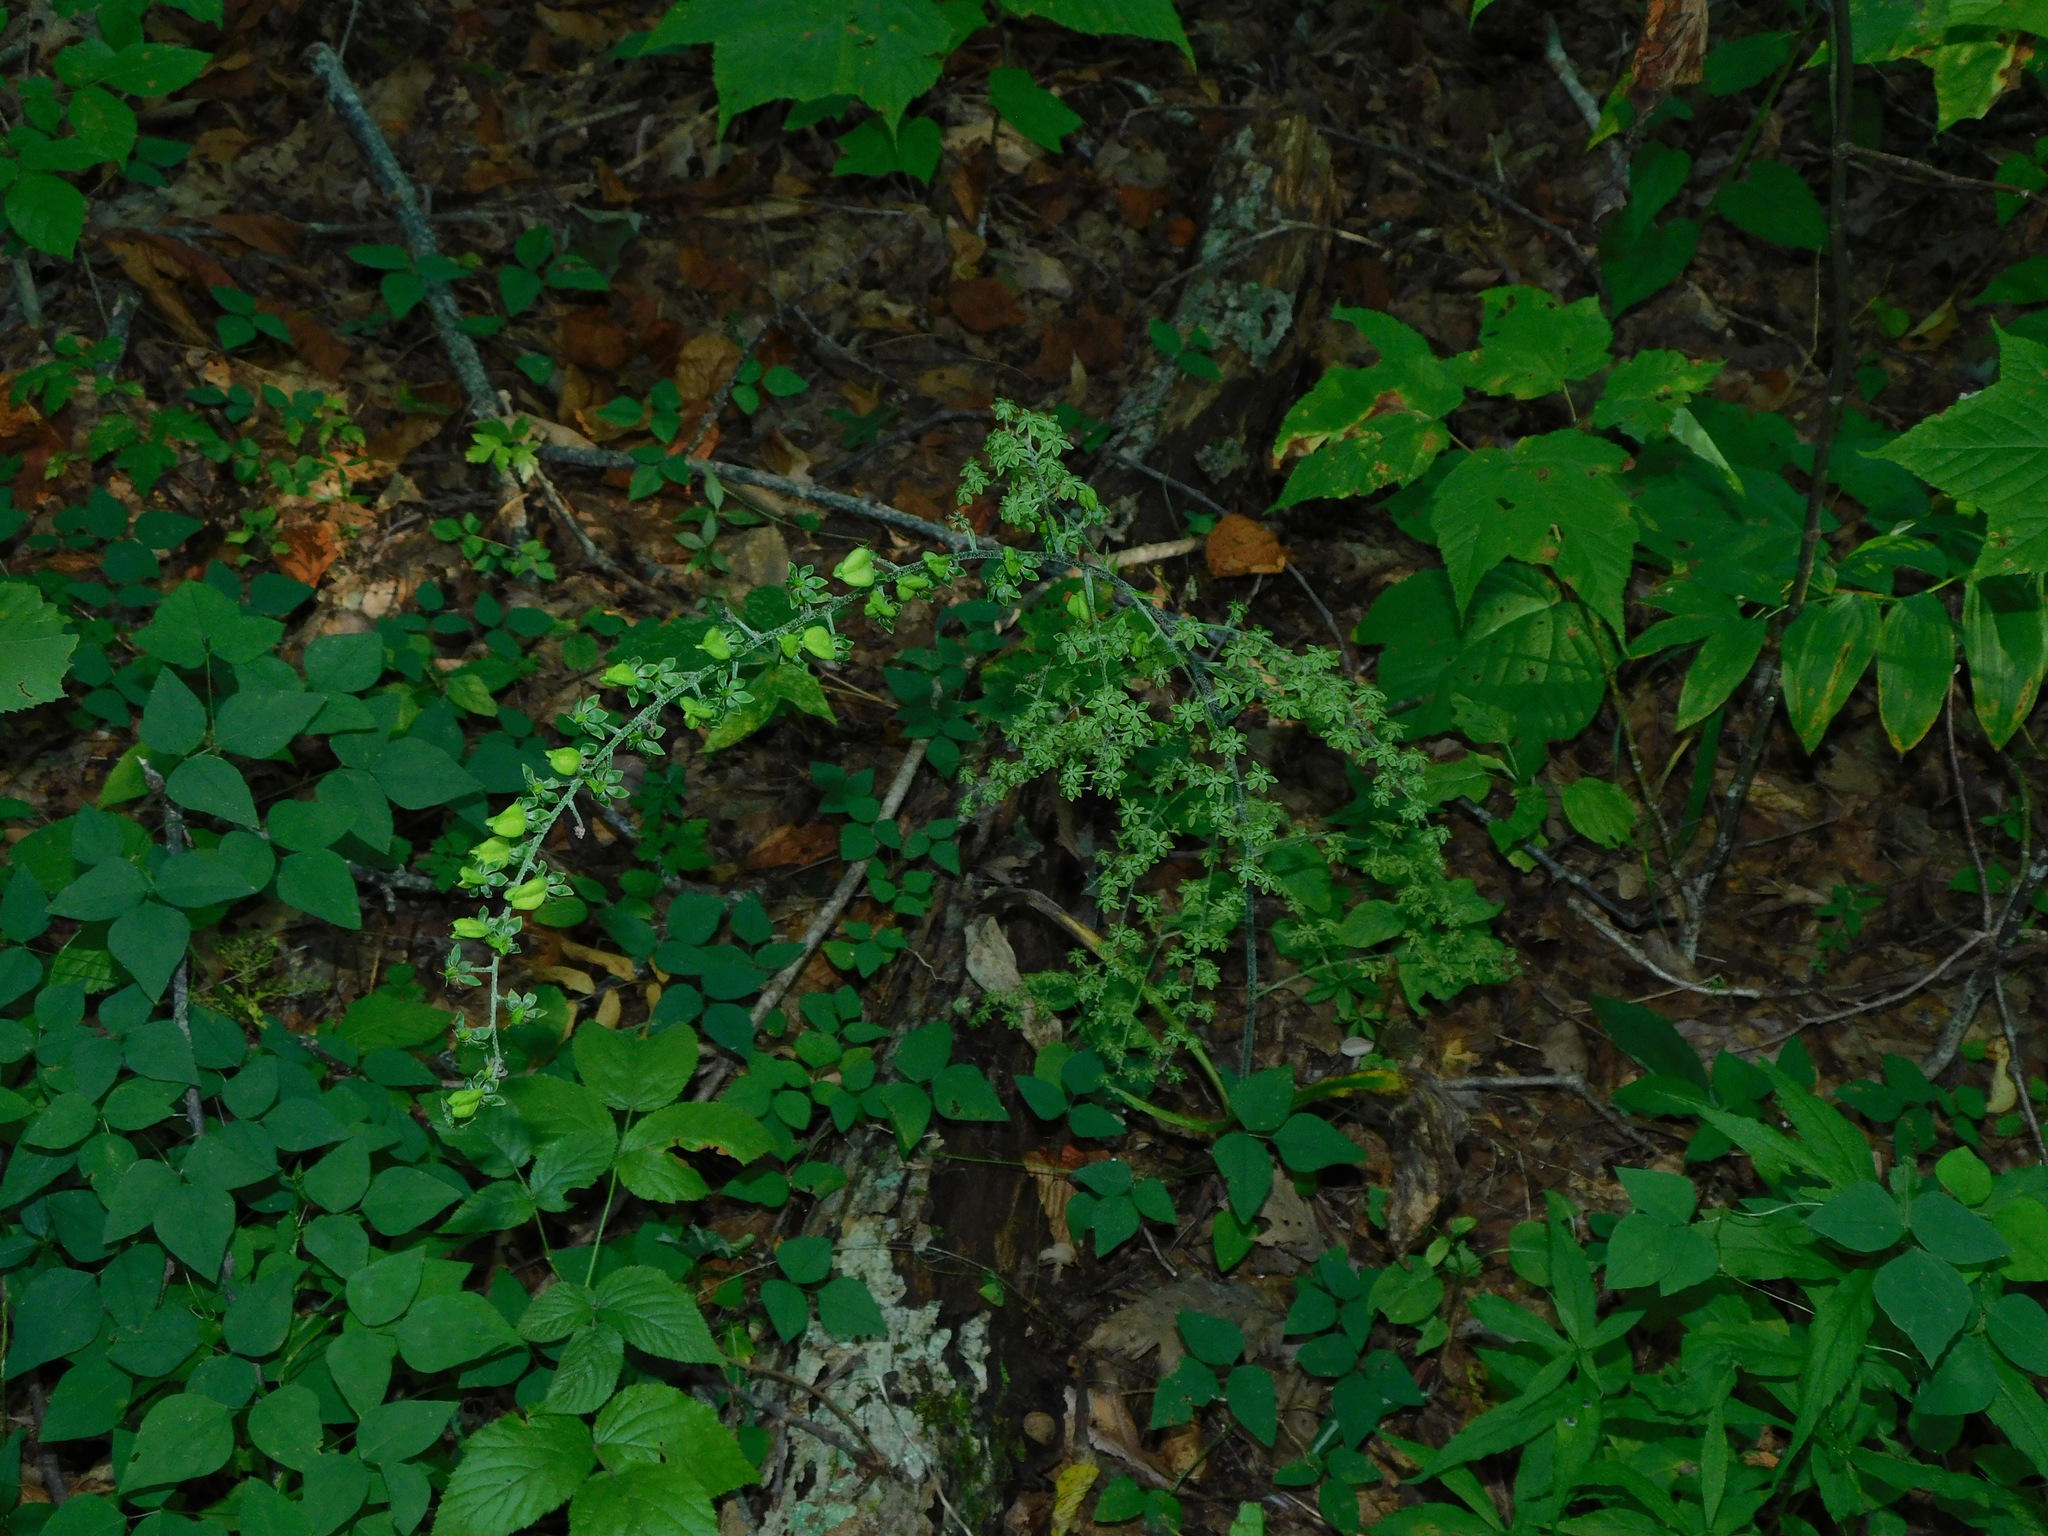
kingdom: Plantae
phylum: Tracheophyta
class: Liliopsida
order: Liliales
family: Melanthiaceae
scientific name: Melanthiaceae
